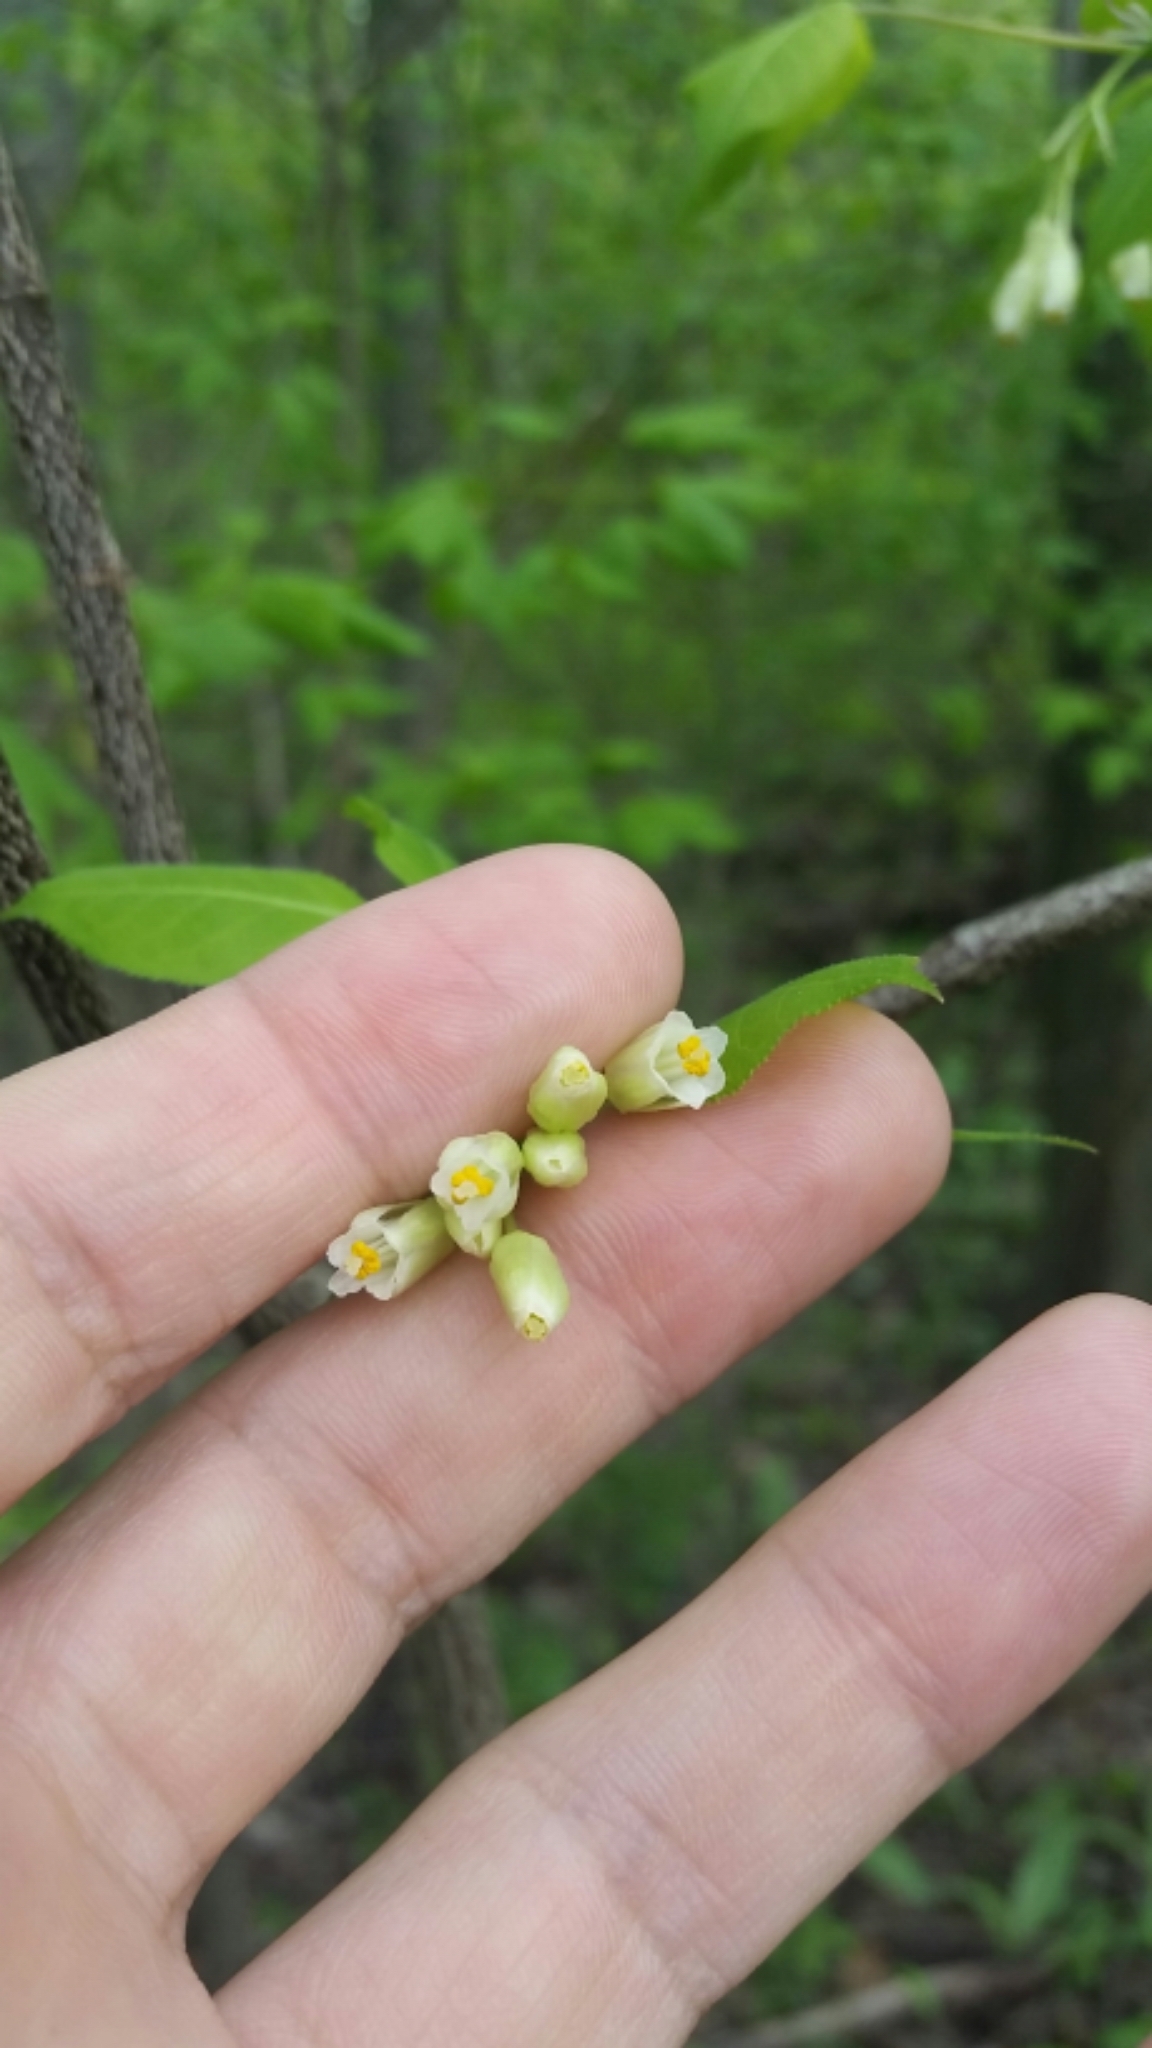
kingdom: Plantae
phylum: Tracheophyta
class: Magnoliopsida
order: Crossosomatales
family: Staphyleaceae
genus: Staphylea
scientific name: Staphylea trifolia
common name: American bladdernut
